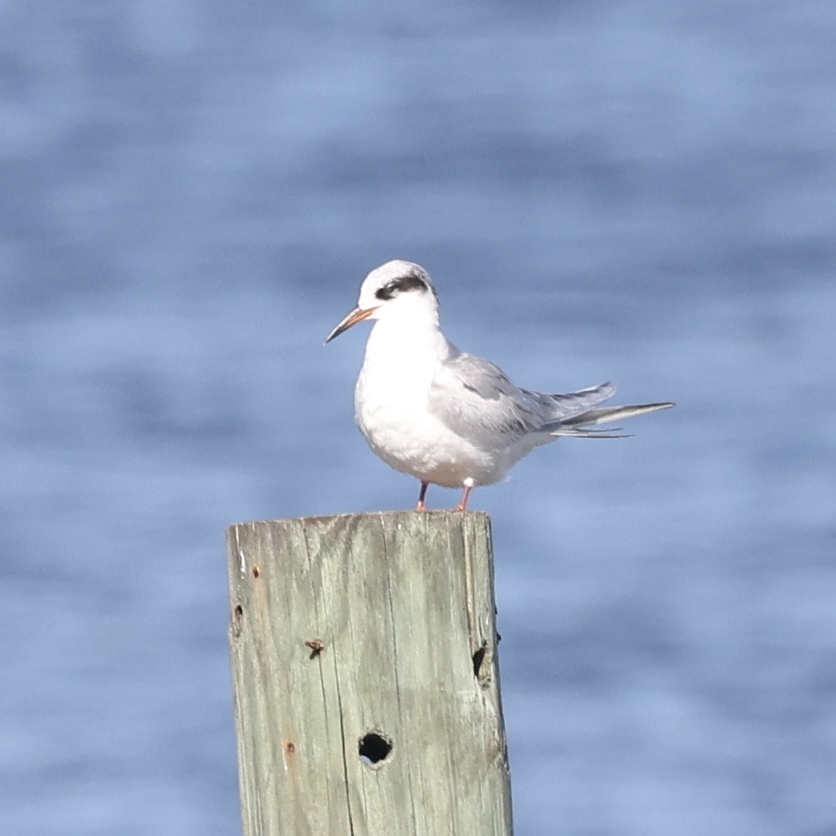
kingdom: Animalia
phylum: Chordata
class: Aves
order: Charadriiformes
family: Laridae
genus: Sterna
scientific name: Sterna forsteri
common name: Forster's tern
